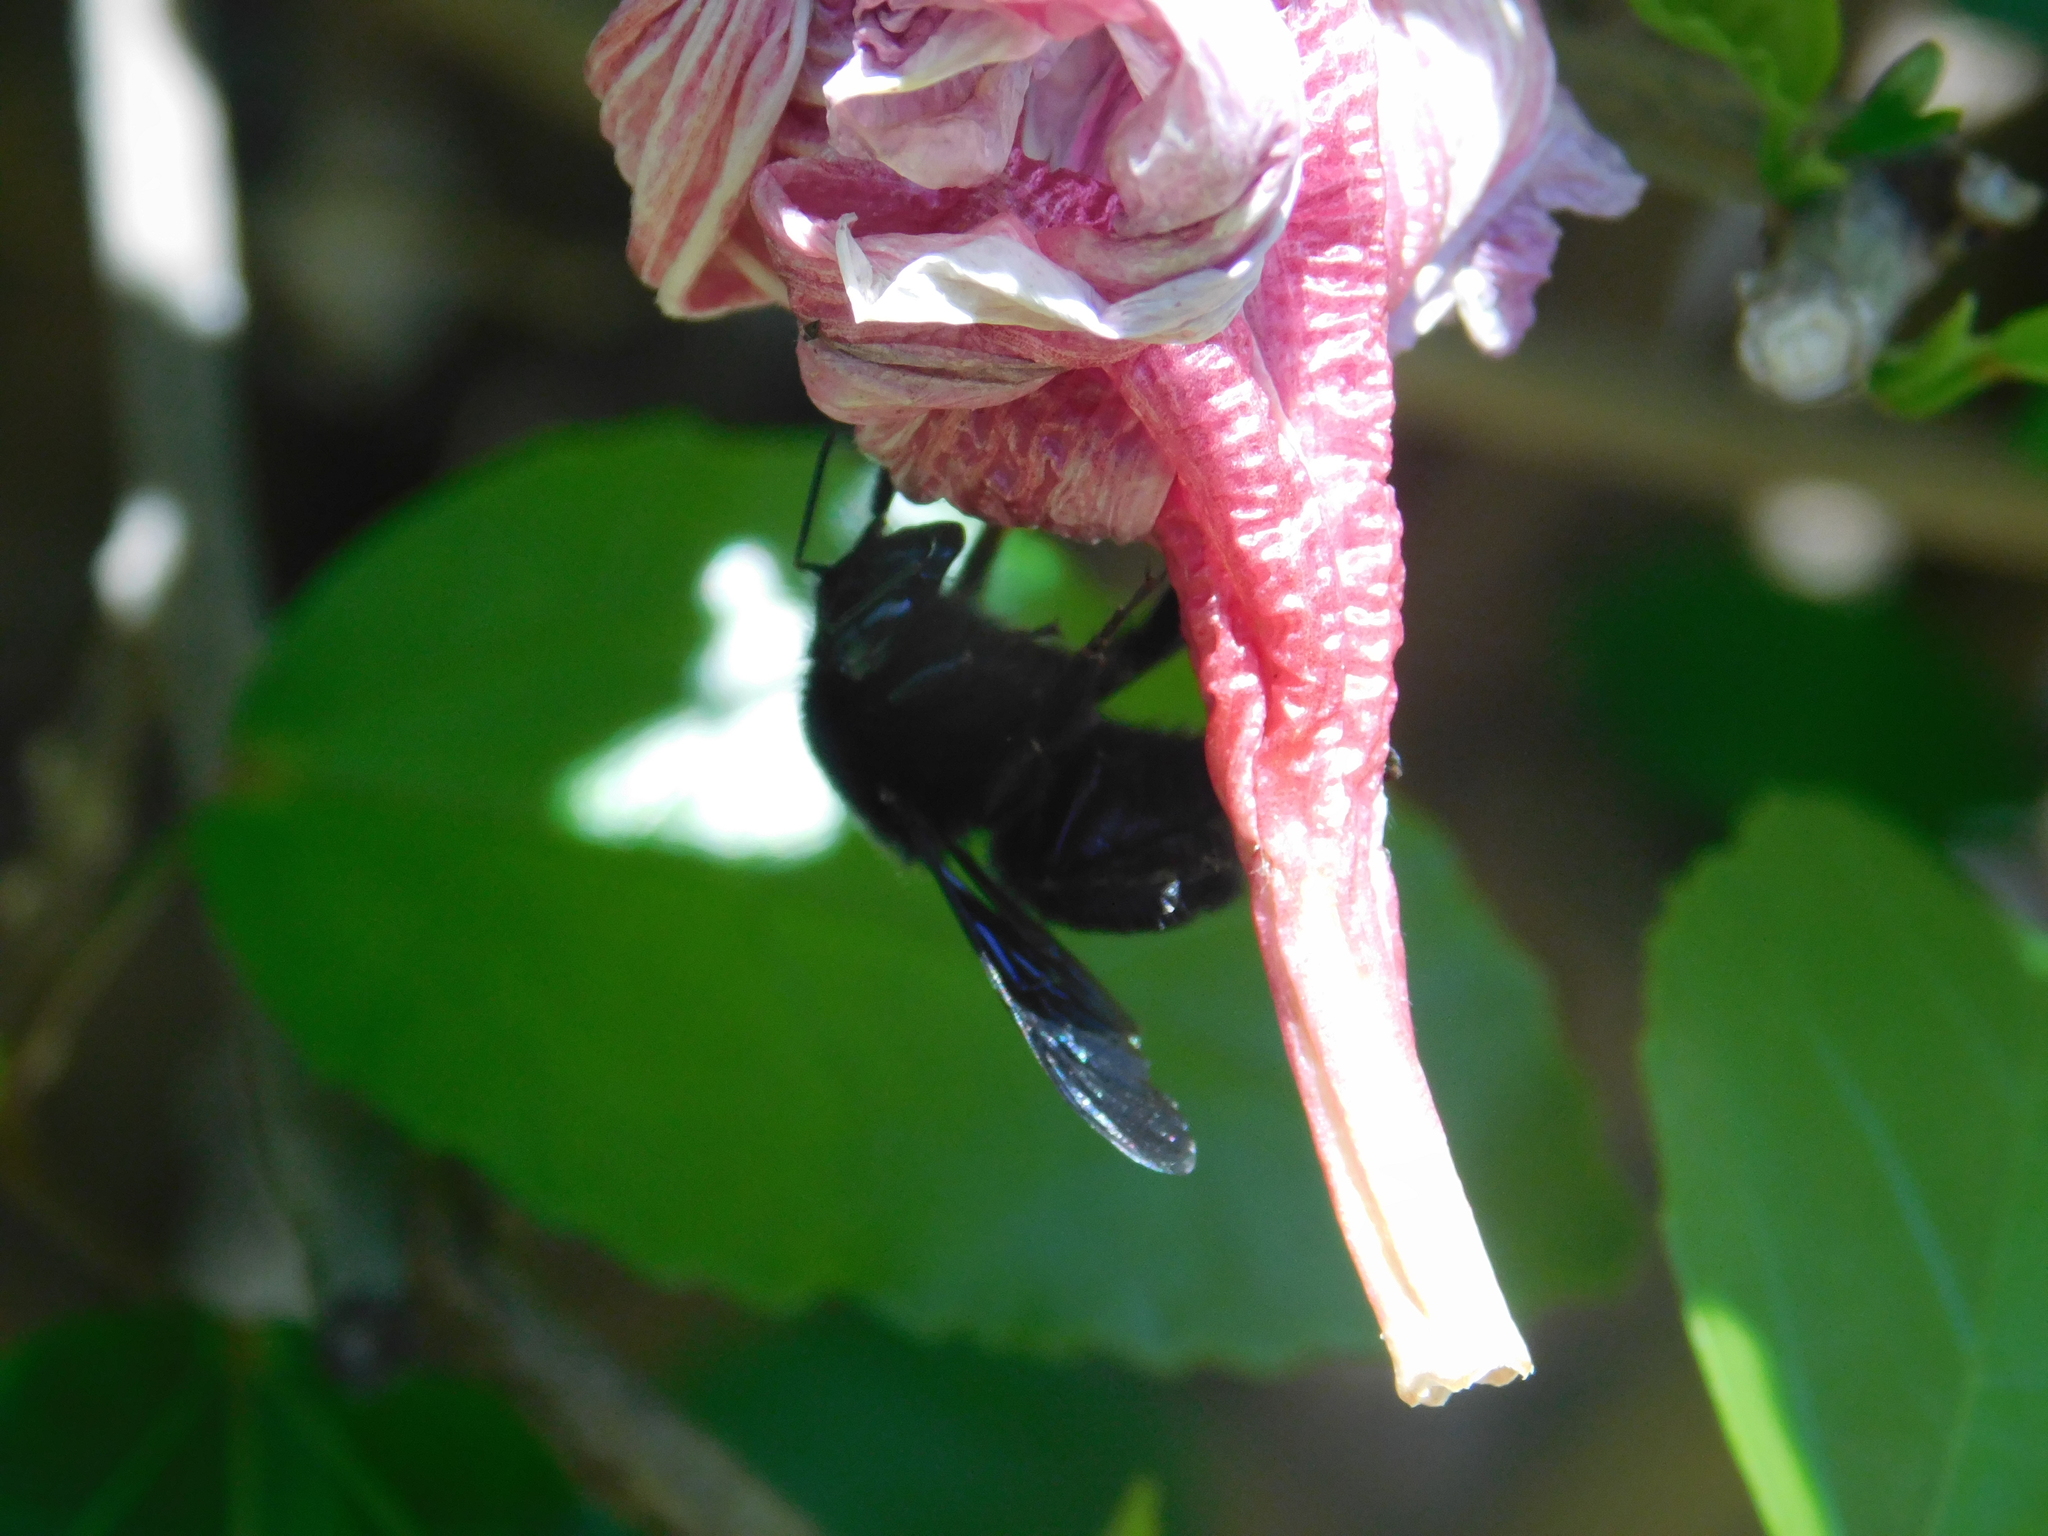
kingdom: Animalia
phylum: Arthropoda
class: Insecta
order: Hymenoptera
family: Apidae
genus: Bombus
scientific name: Bombus pauloensis
